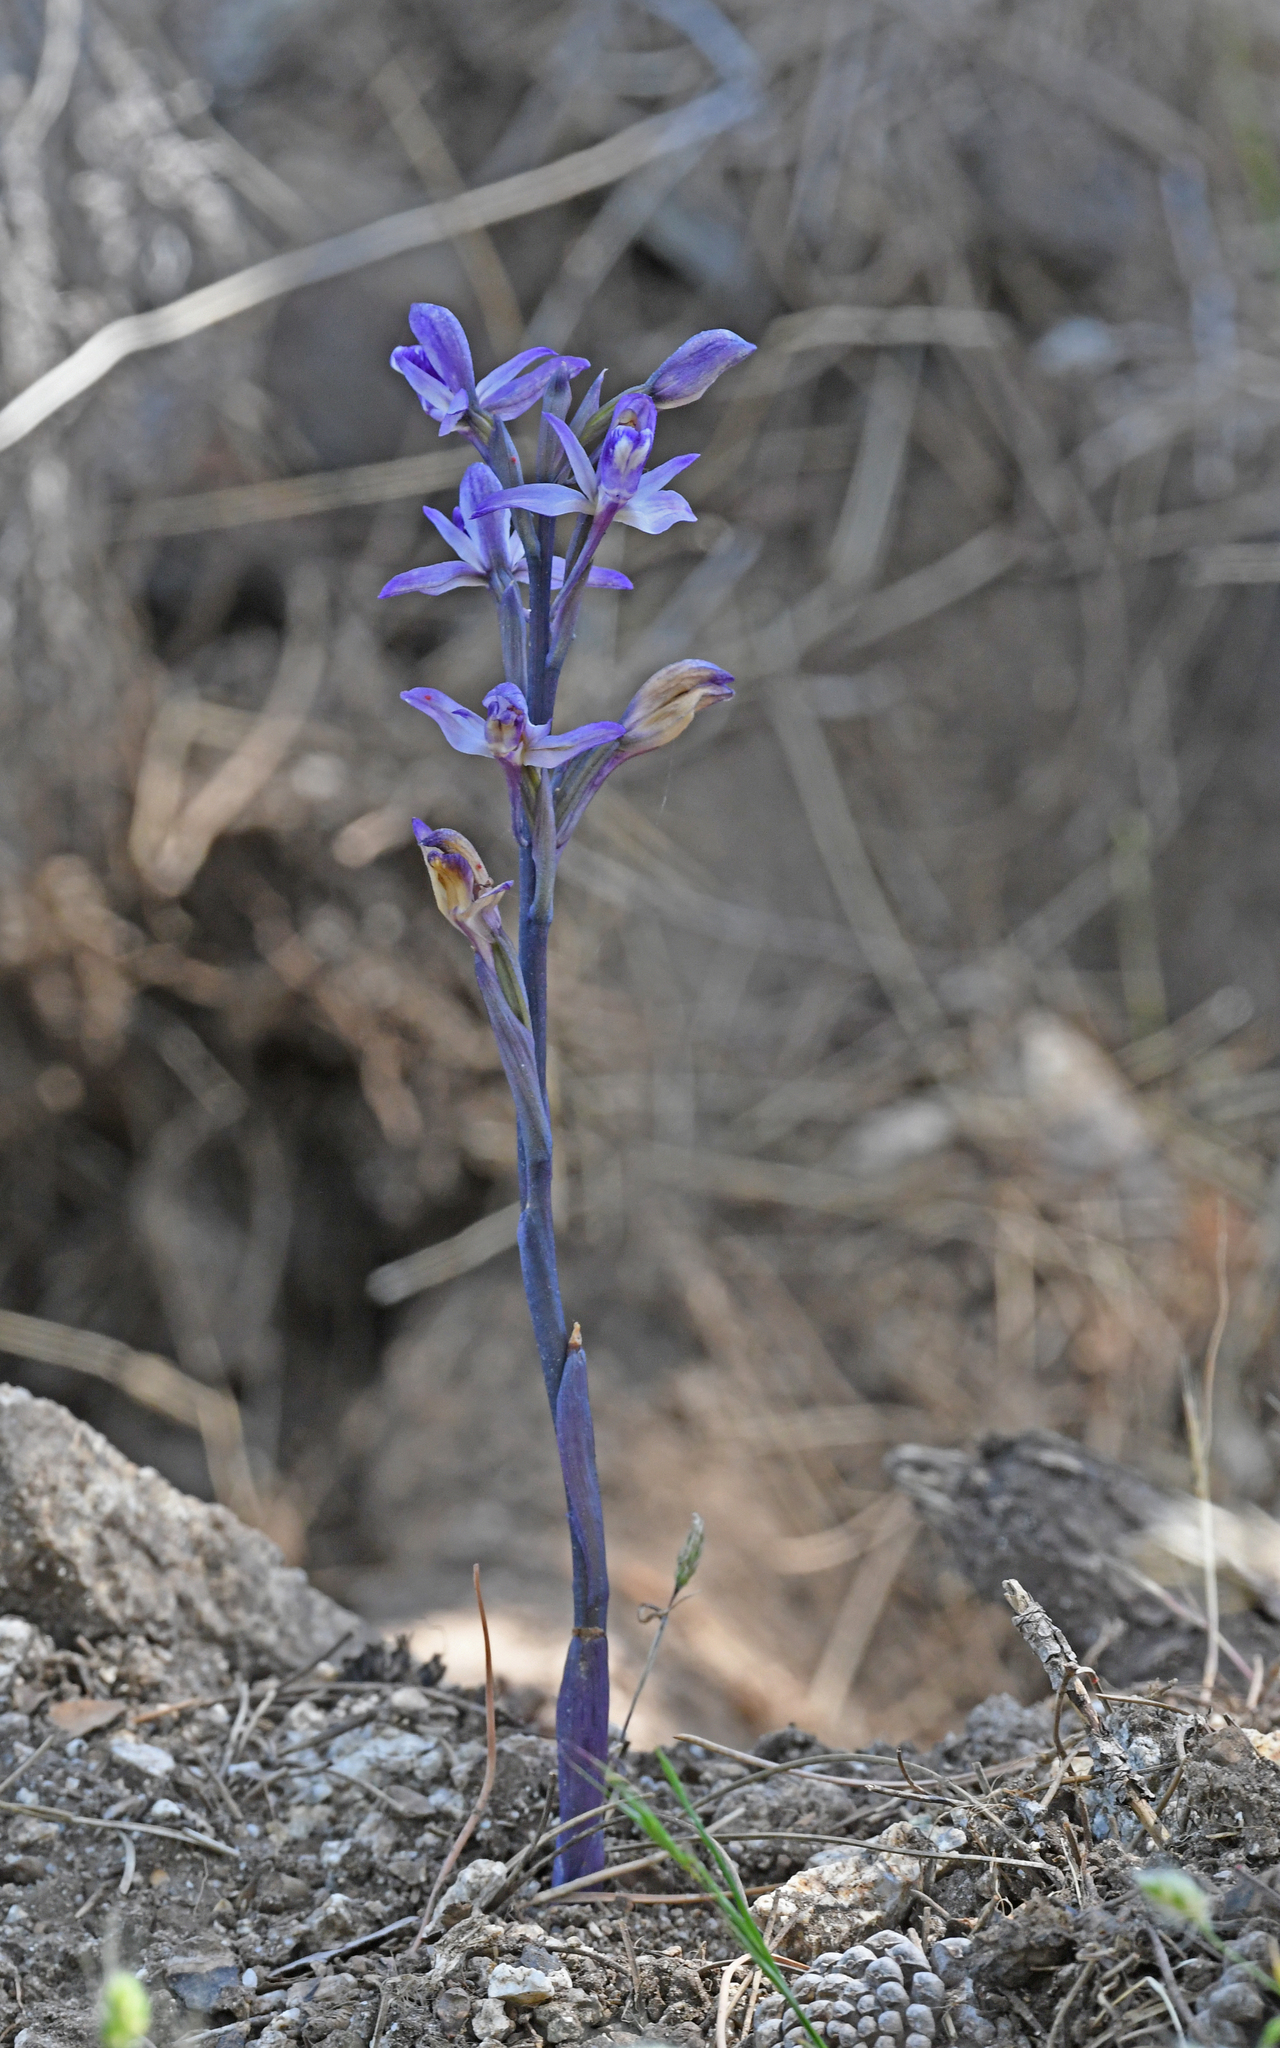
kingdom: Plantae
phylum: Tracheophyta
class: Liliopsida
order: Asparagales
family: Orchidaceae
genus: Limodorum
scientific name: Limodorum abortivum
